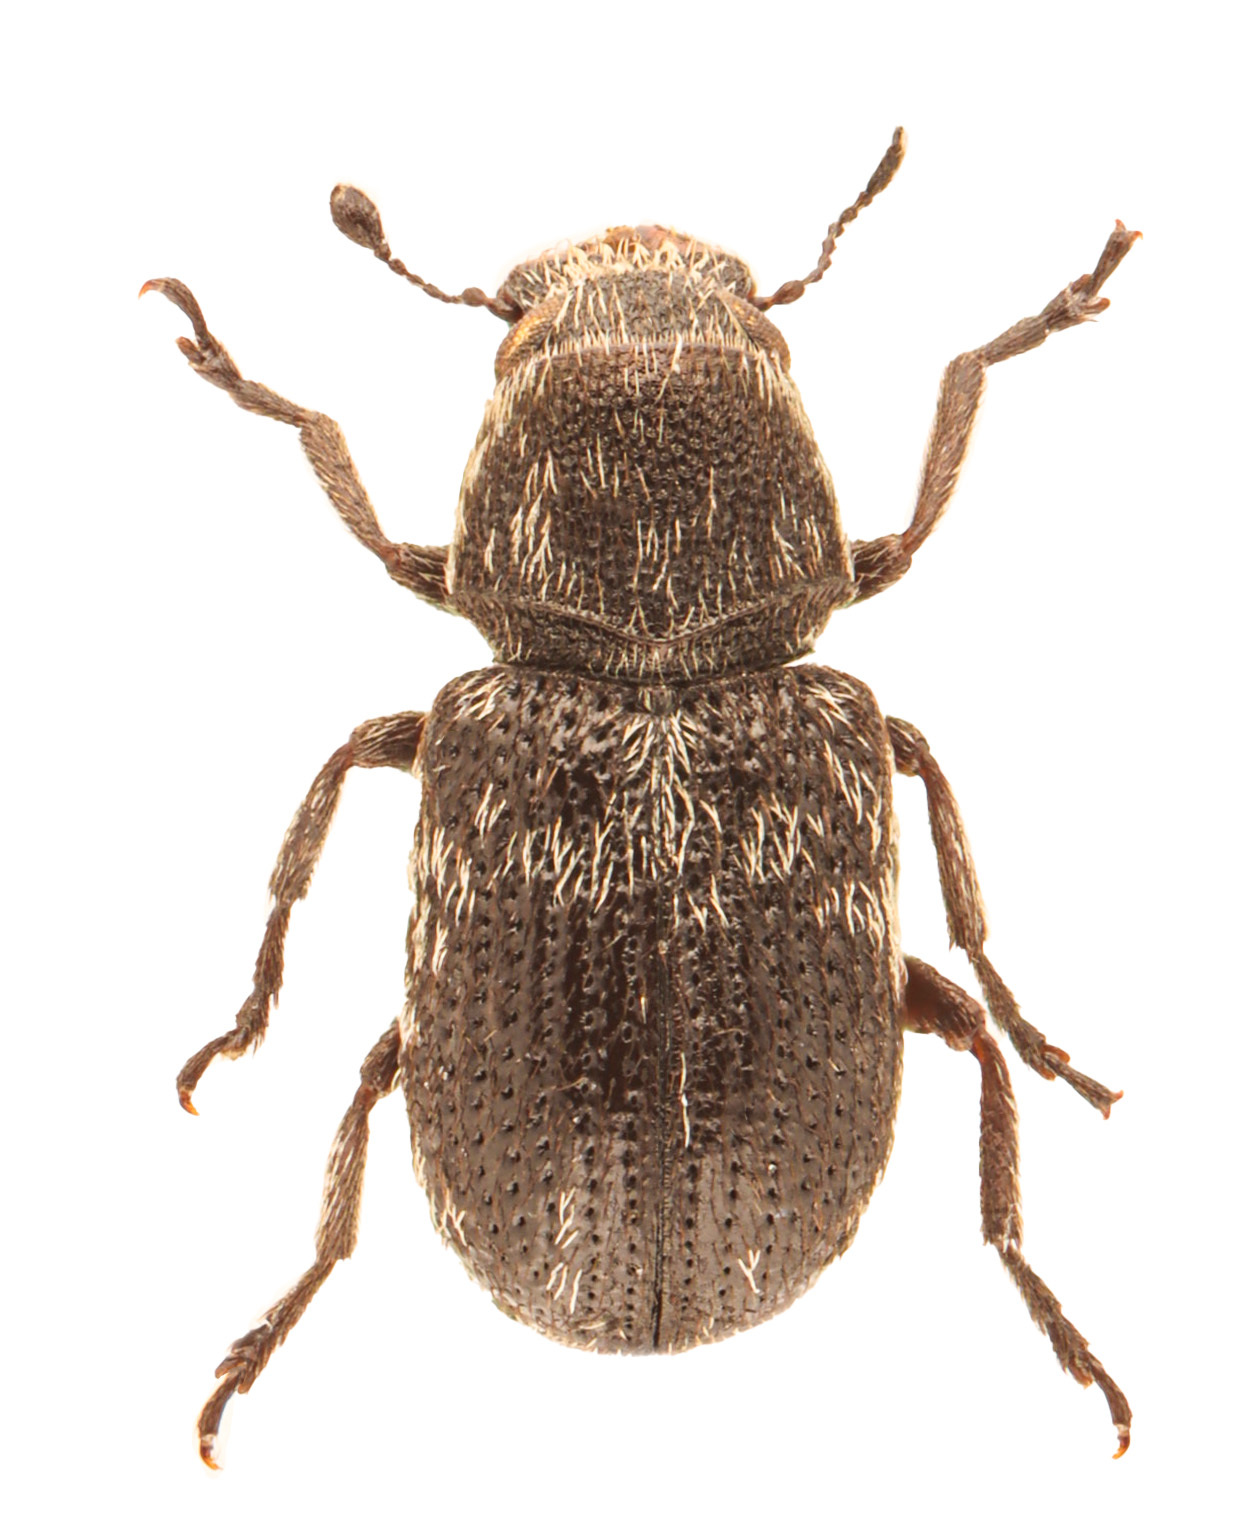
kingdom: Animalia
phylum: Arthropoda
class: Insecta
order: Coleoptera
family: Anthribidae
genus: Ormiscus
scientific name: Ormiscus saltator
